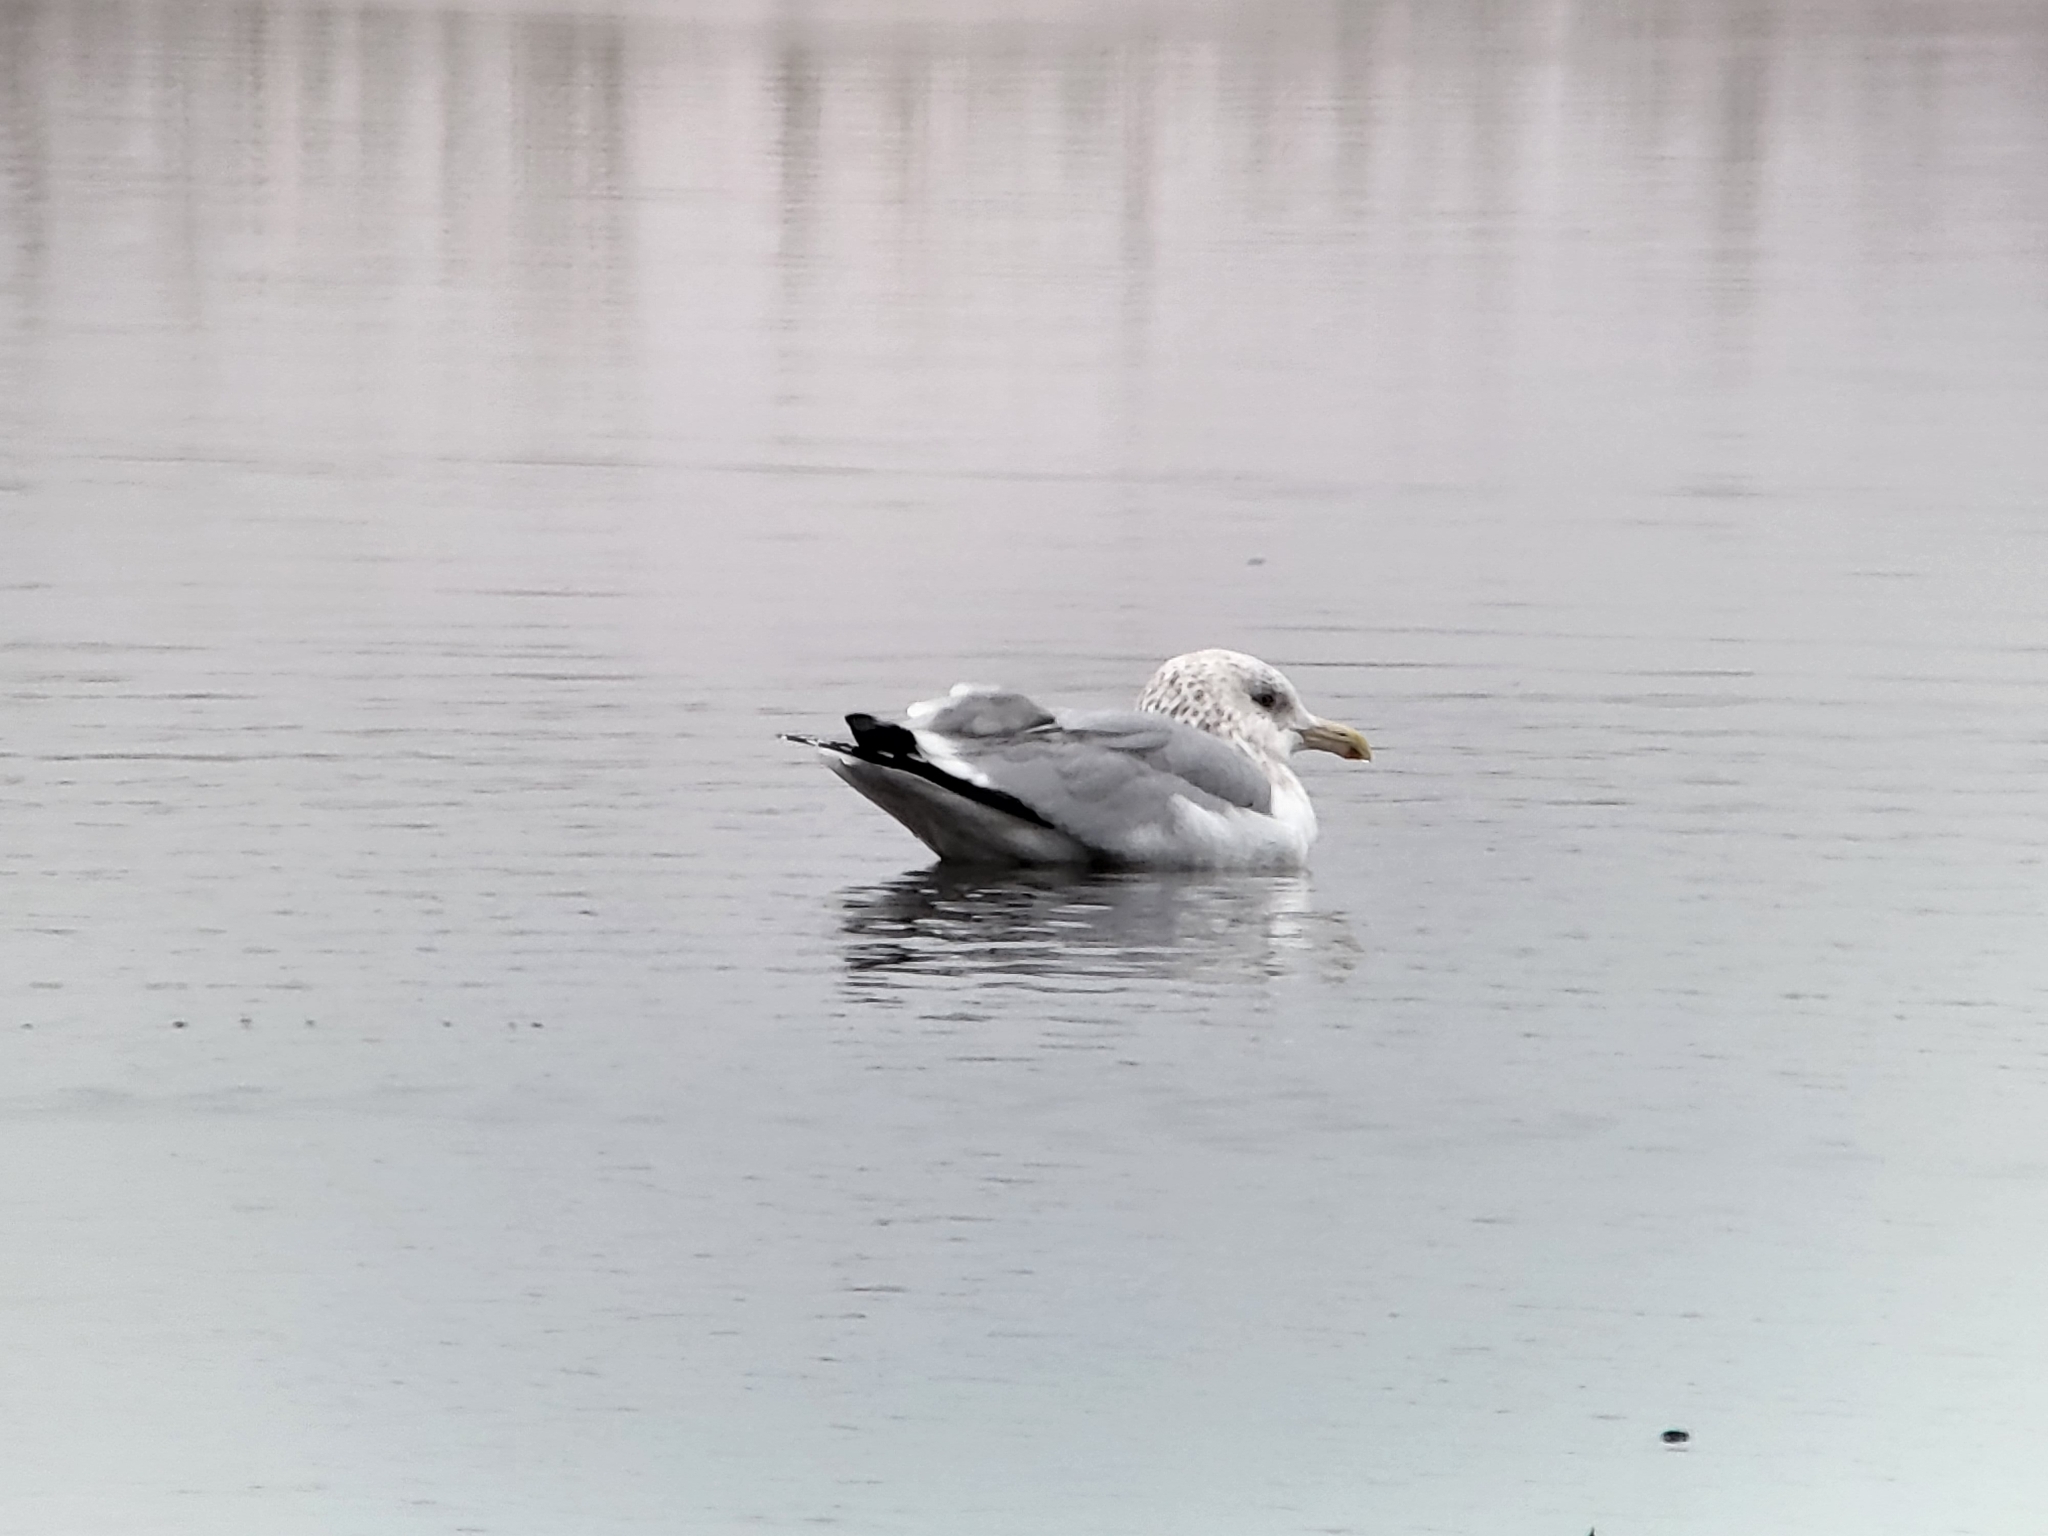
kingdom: Animalia
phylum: Chordata
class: Aves
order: Charadriiformes
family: Laridae
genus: Larus
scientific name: Larus californicus
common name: California gull
